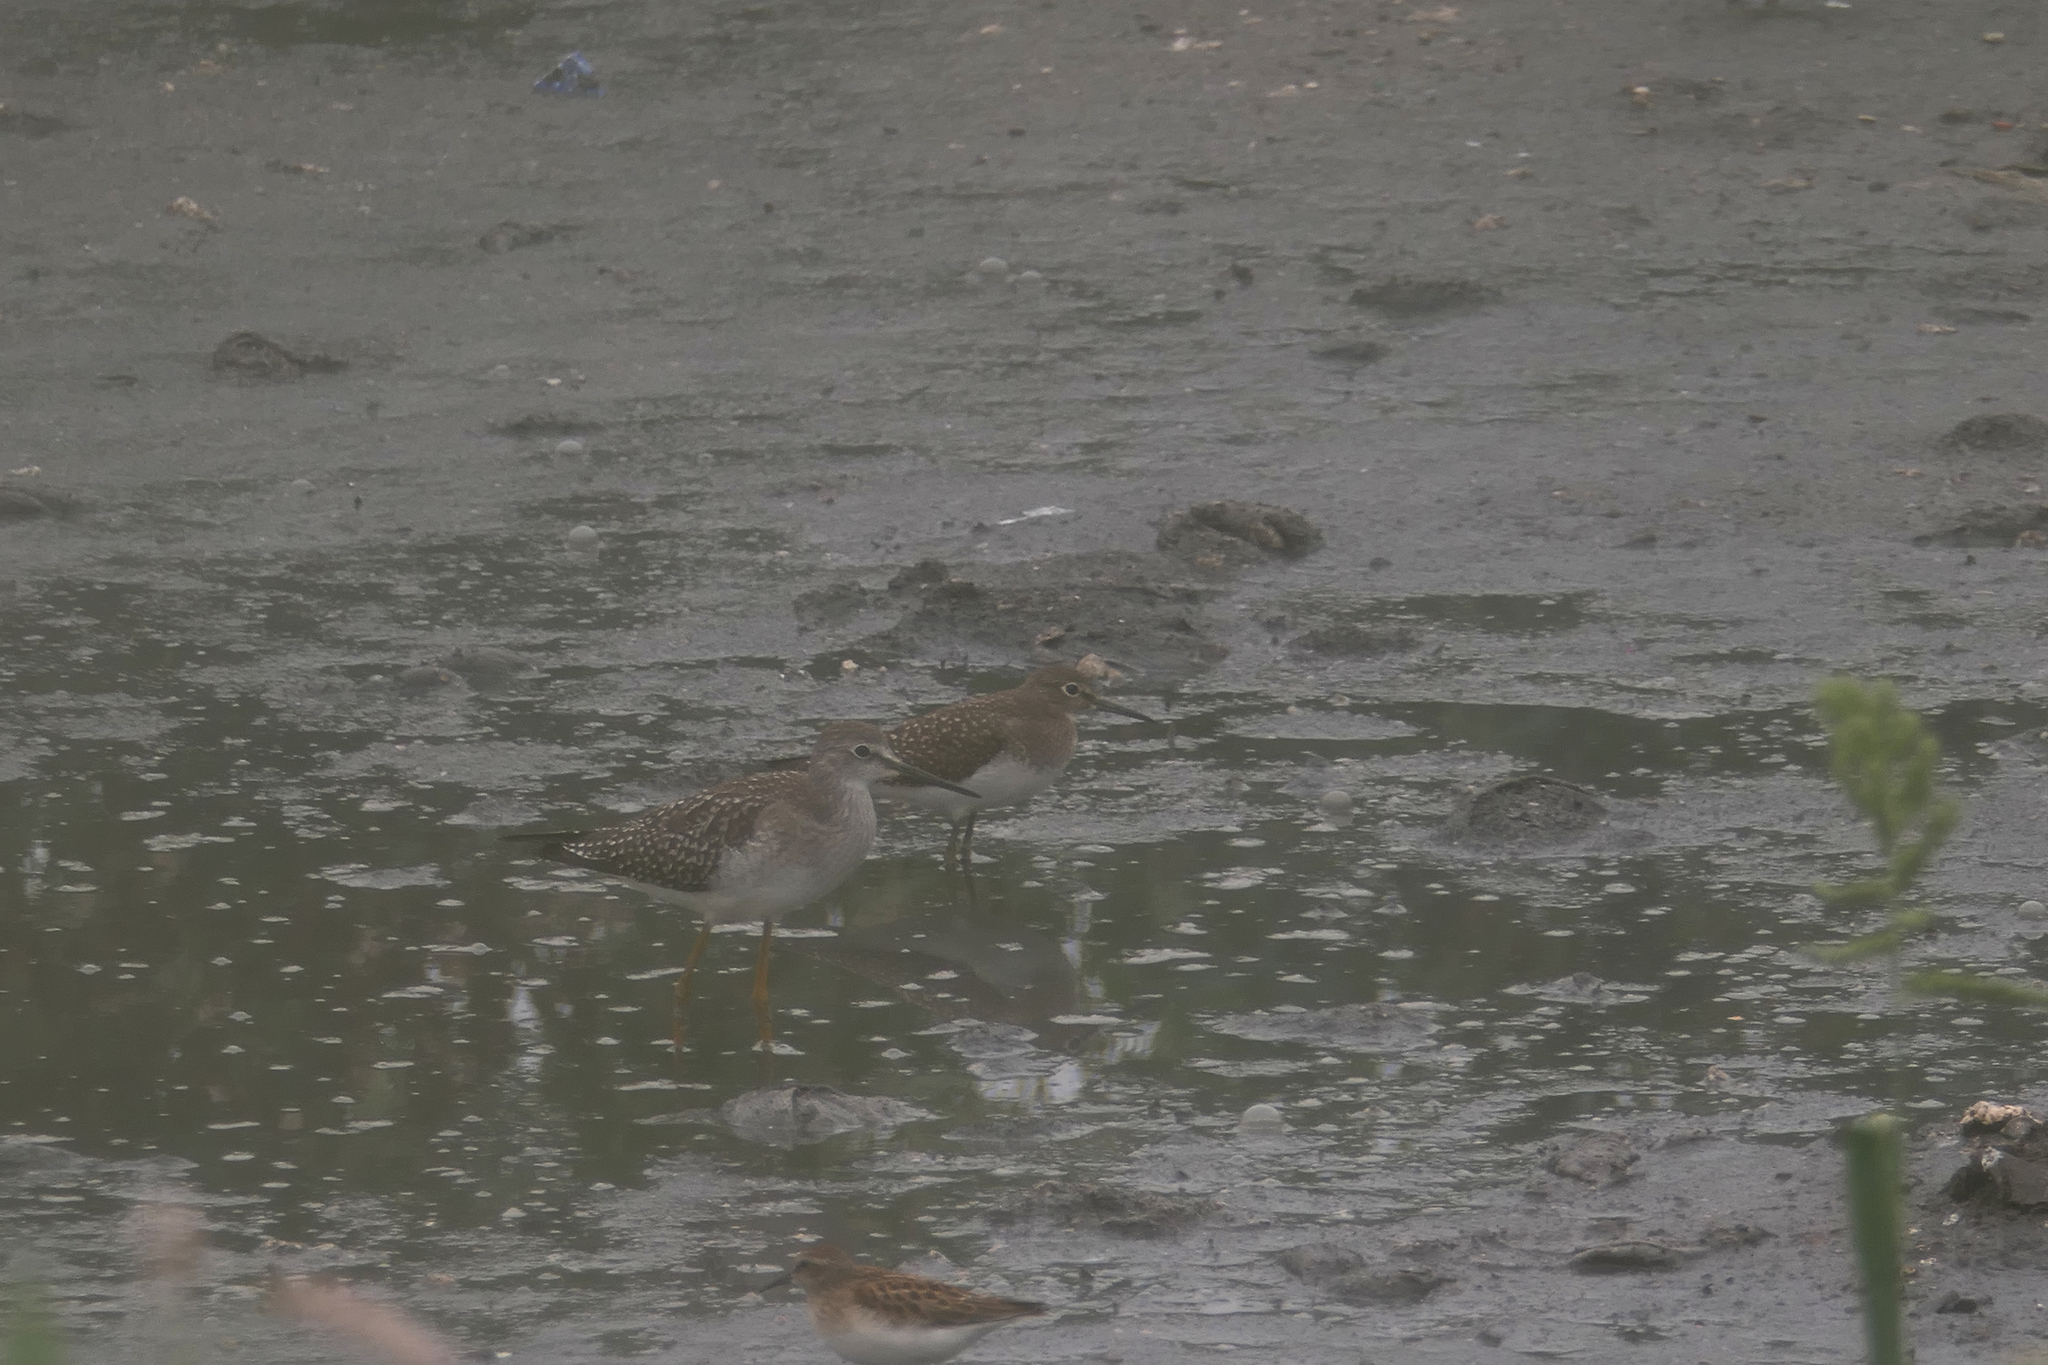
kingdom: Animalia
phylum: Chordata
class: Aves
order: Charadriiformes
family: Scolopacidae
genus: Tringa
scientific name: Tringa melanoleuca
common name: Greater yellowlegs
